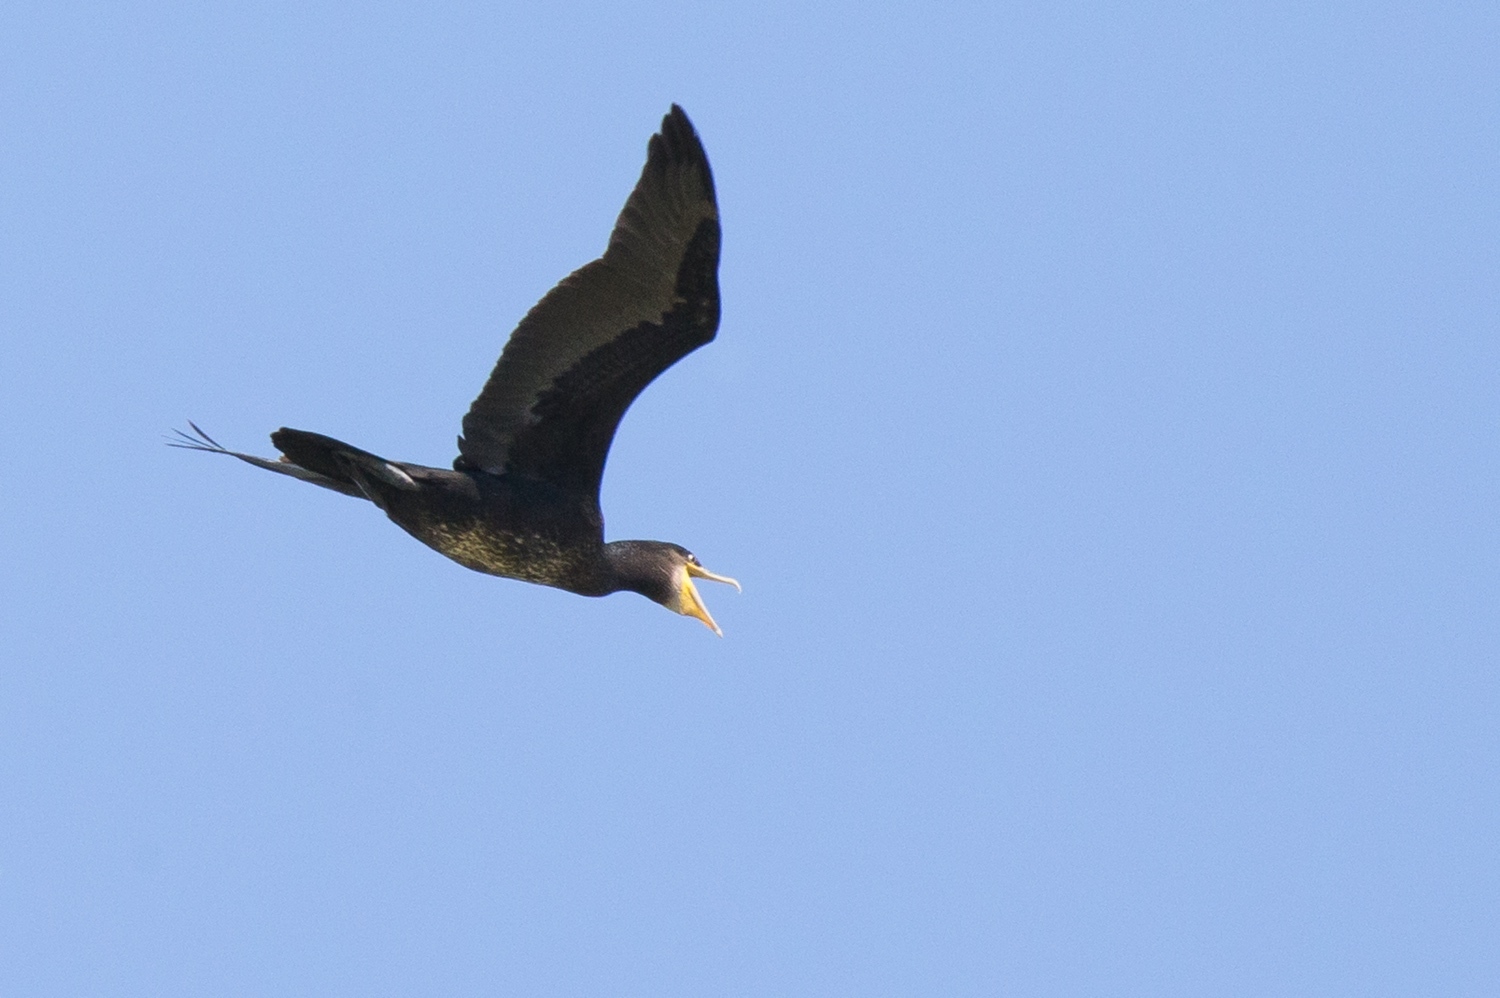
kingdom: Animalia
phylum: Chordata
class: Aves
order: Suliformes
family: Phalacrocoracidae
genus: Phalacrocorax
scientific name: Phalacrocorax carbo
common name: Great cormorant
